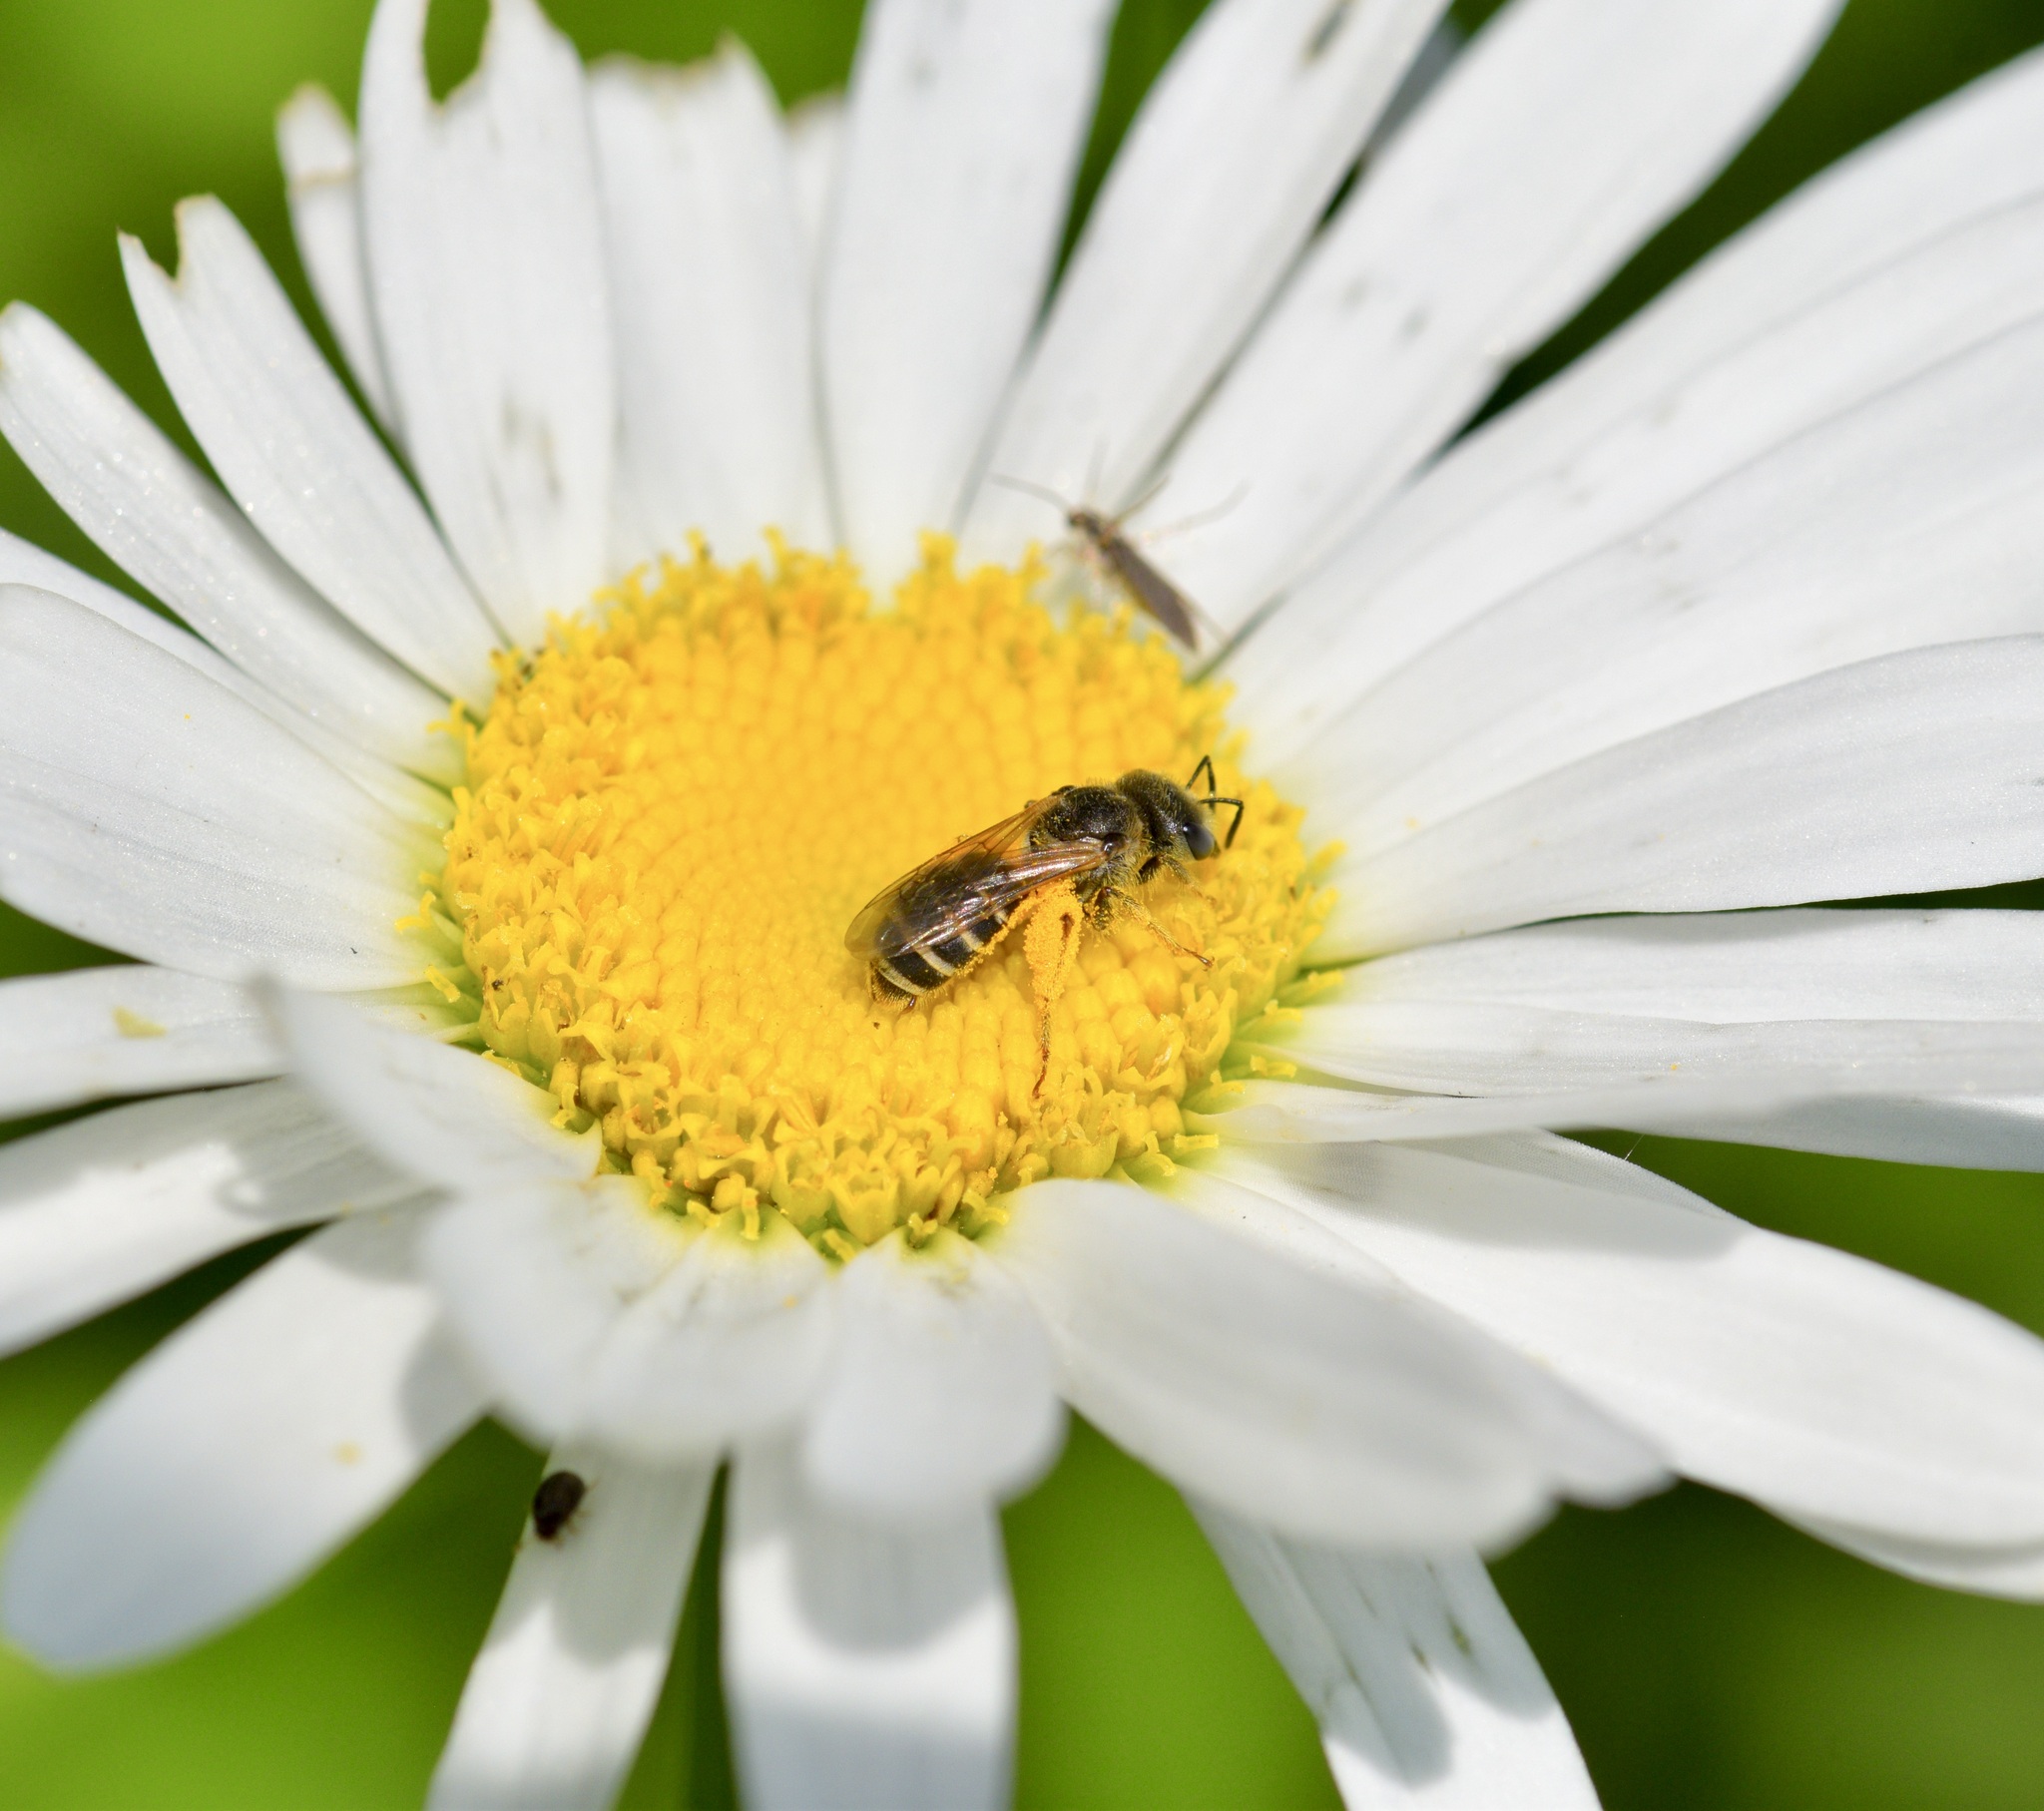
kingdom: Animalia
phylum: Arthropoda
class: Insecta
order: Hymenoptera
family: Halictidae
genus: Halictus
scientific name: Halictus ligatus
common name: Ligated furrow bee
